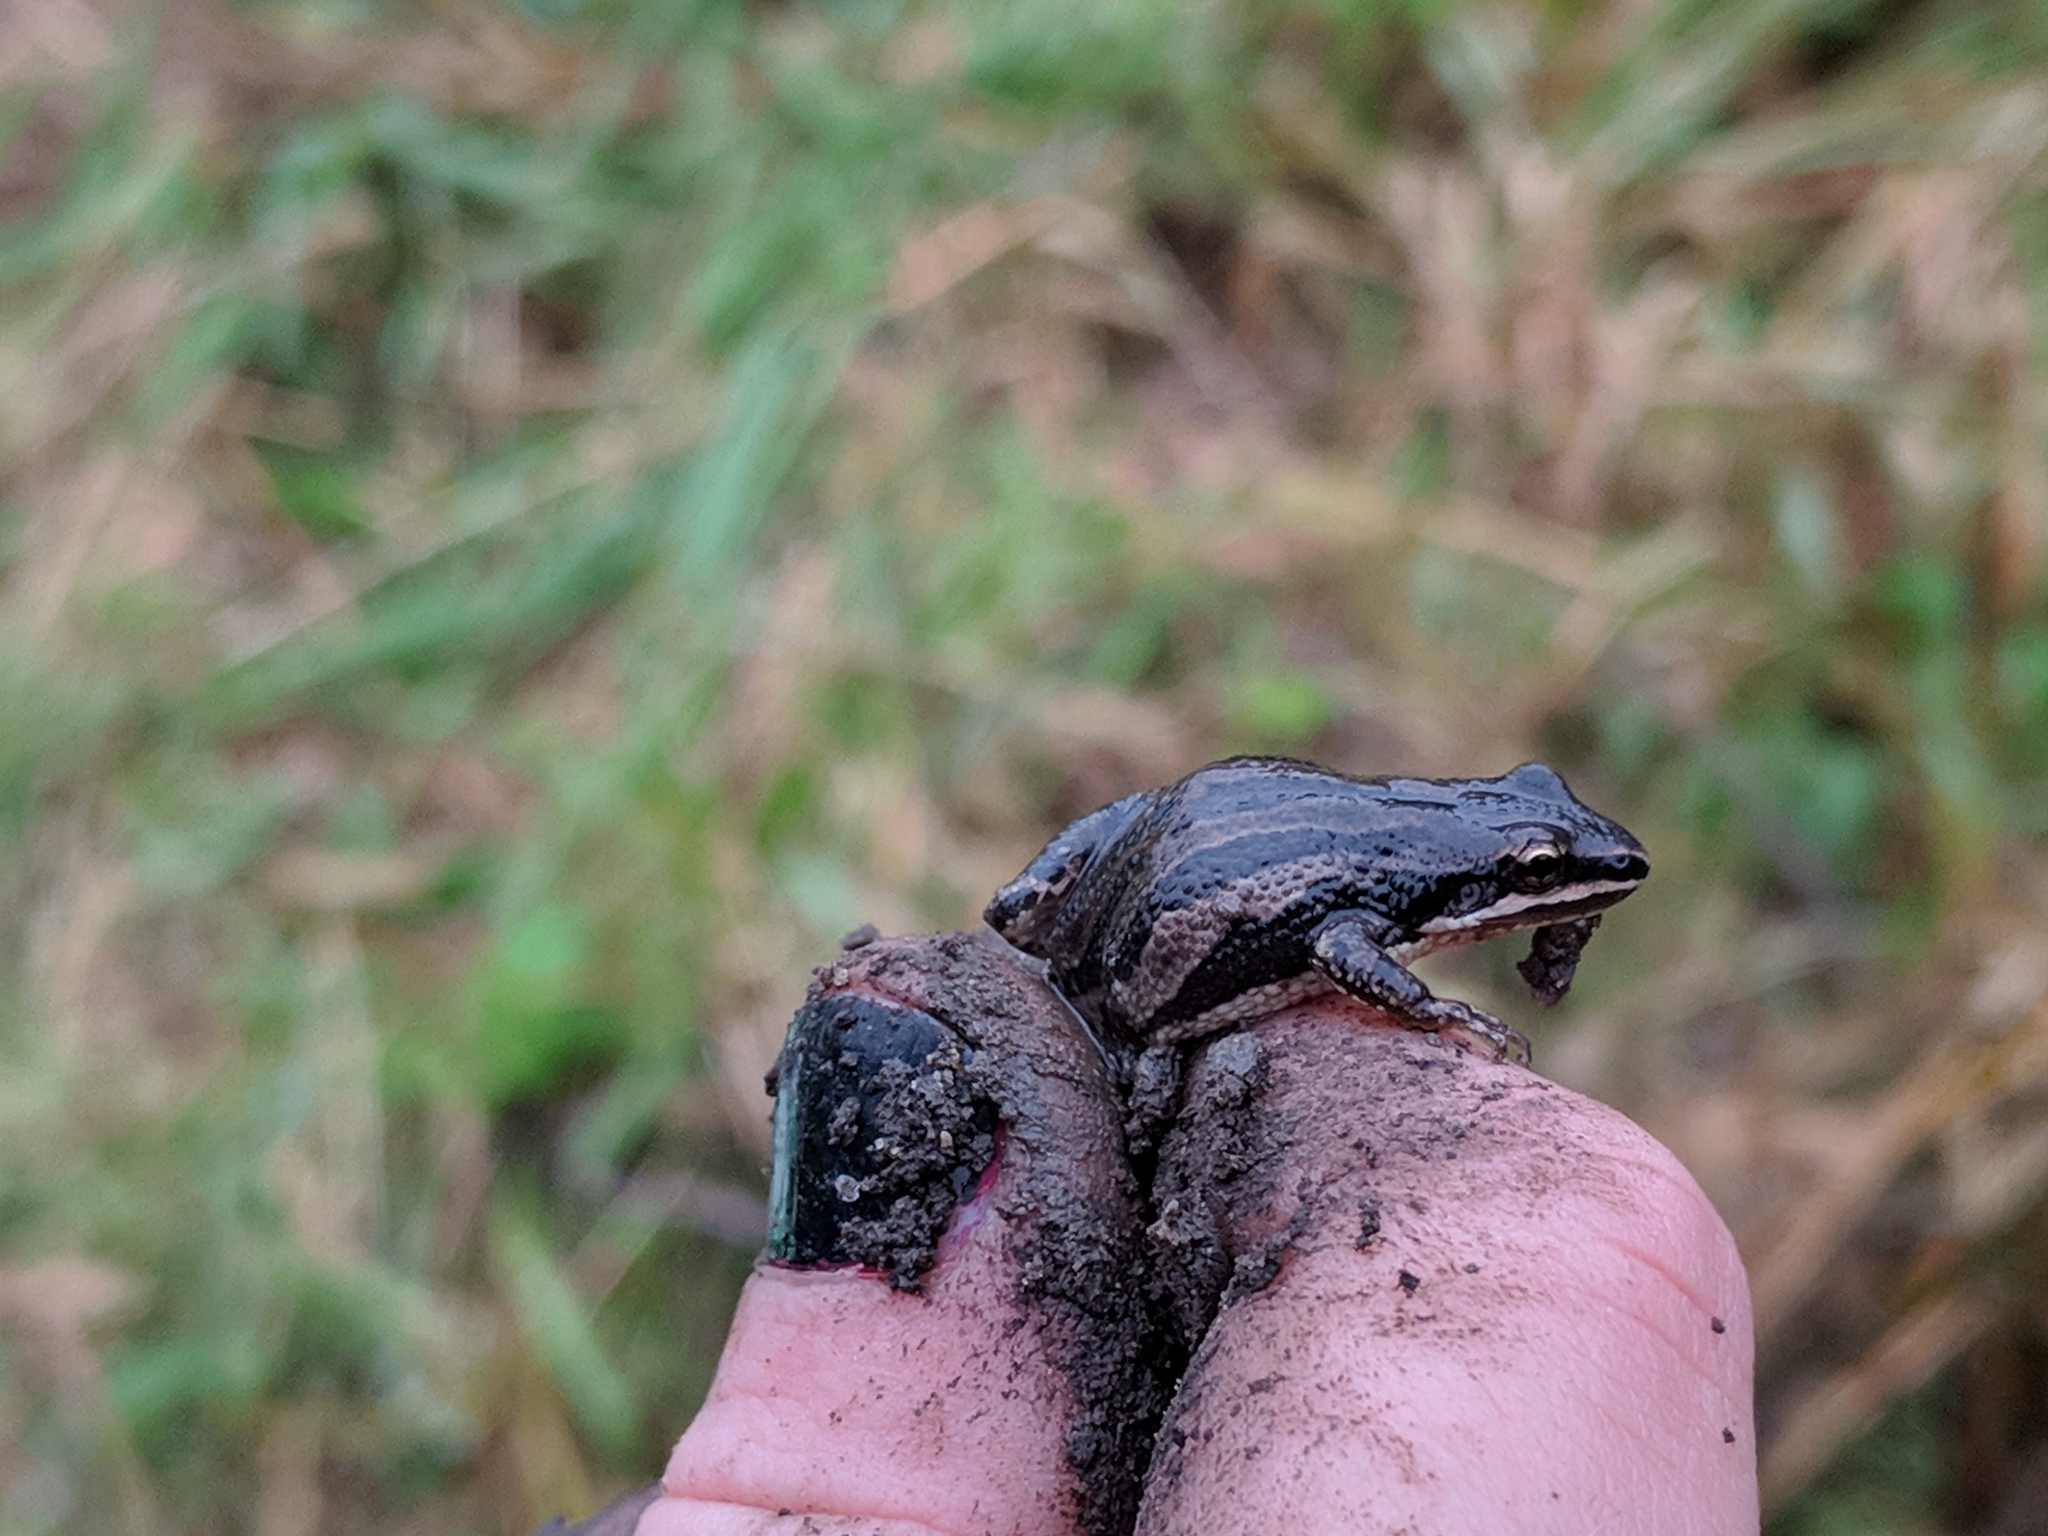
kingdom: Animalia
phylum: Chordata
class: Amphibia
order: Anura
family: Hylidae
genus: Pseudacris
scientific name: Pseudacris maculata
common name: Boreal chorus frog
